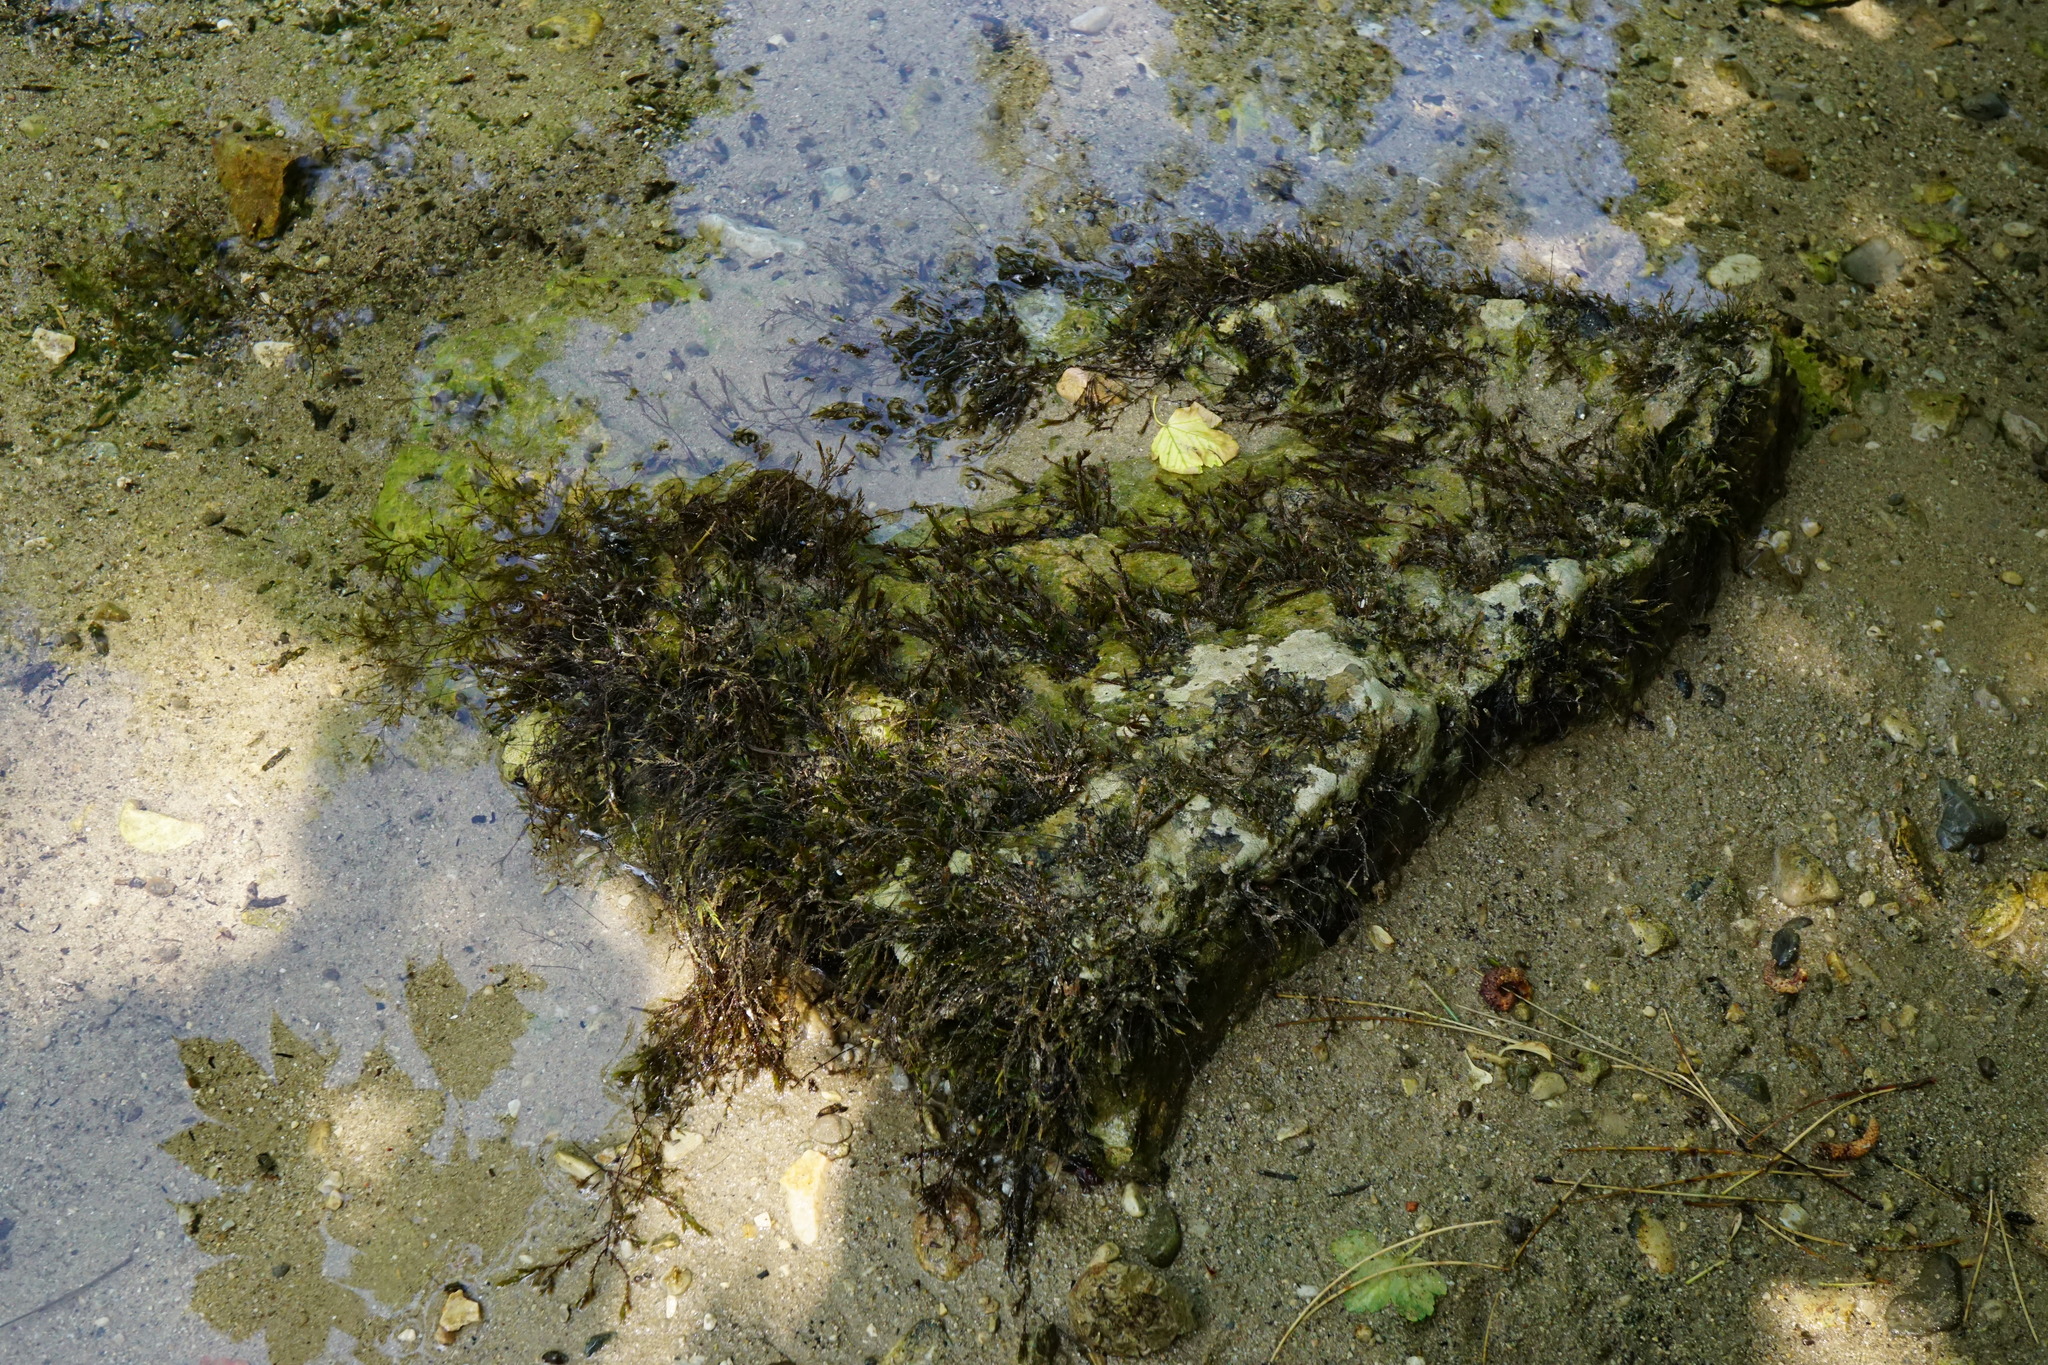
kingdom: Plantae
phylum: Bryophyta
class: Bryopsida
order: Hypnales
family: Fontinalaceae
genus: Fontinalis
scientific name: Fontinalis antipyretica
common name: Greater water-moss
